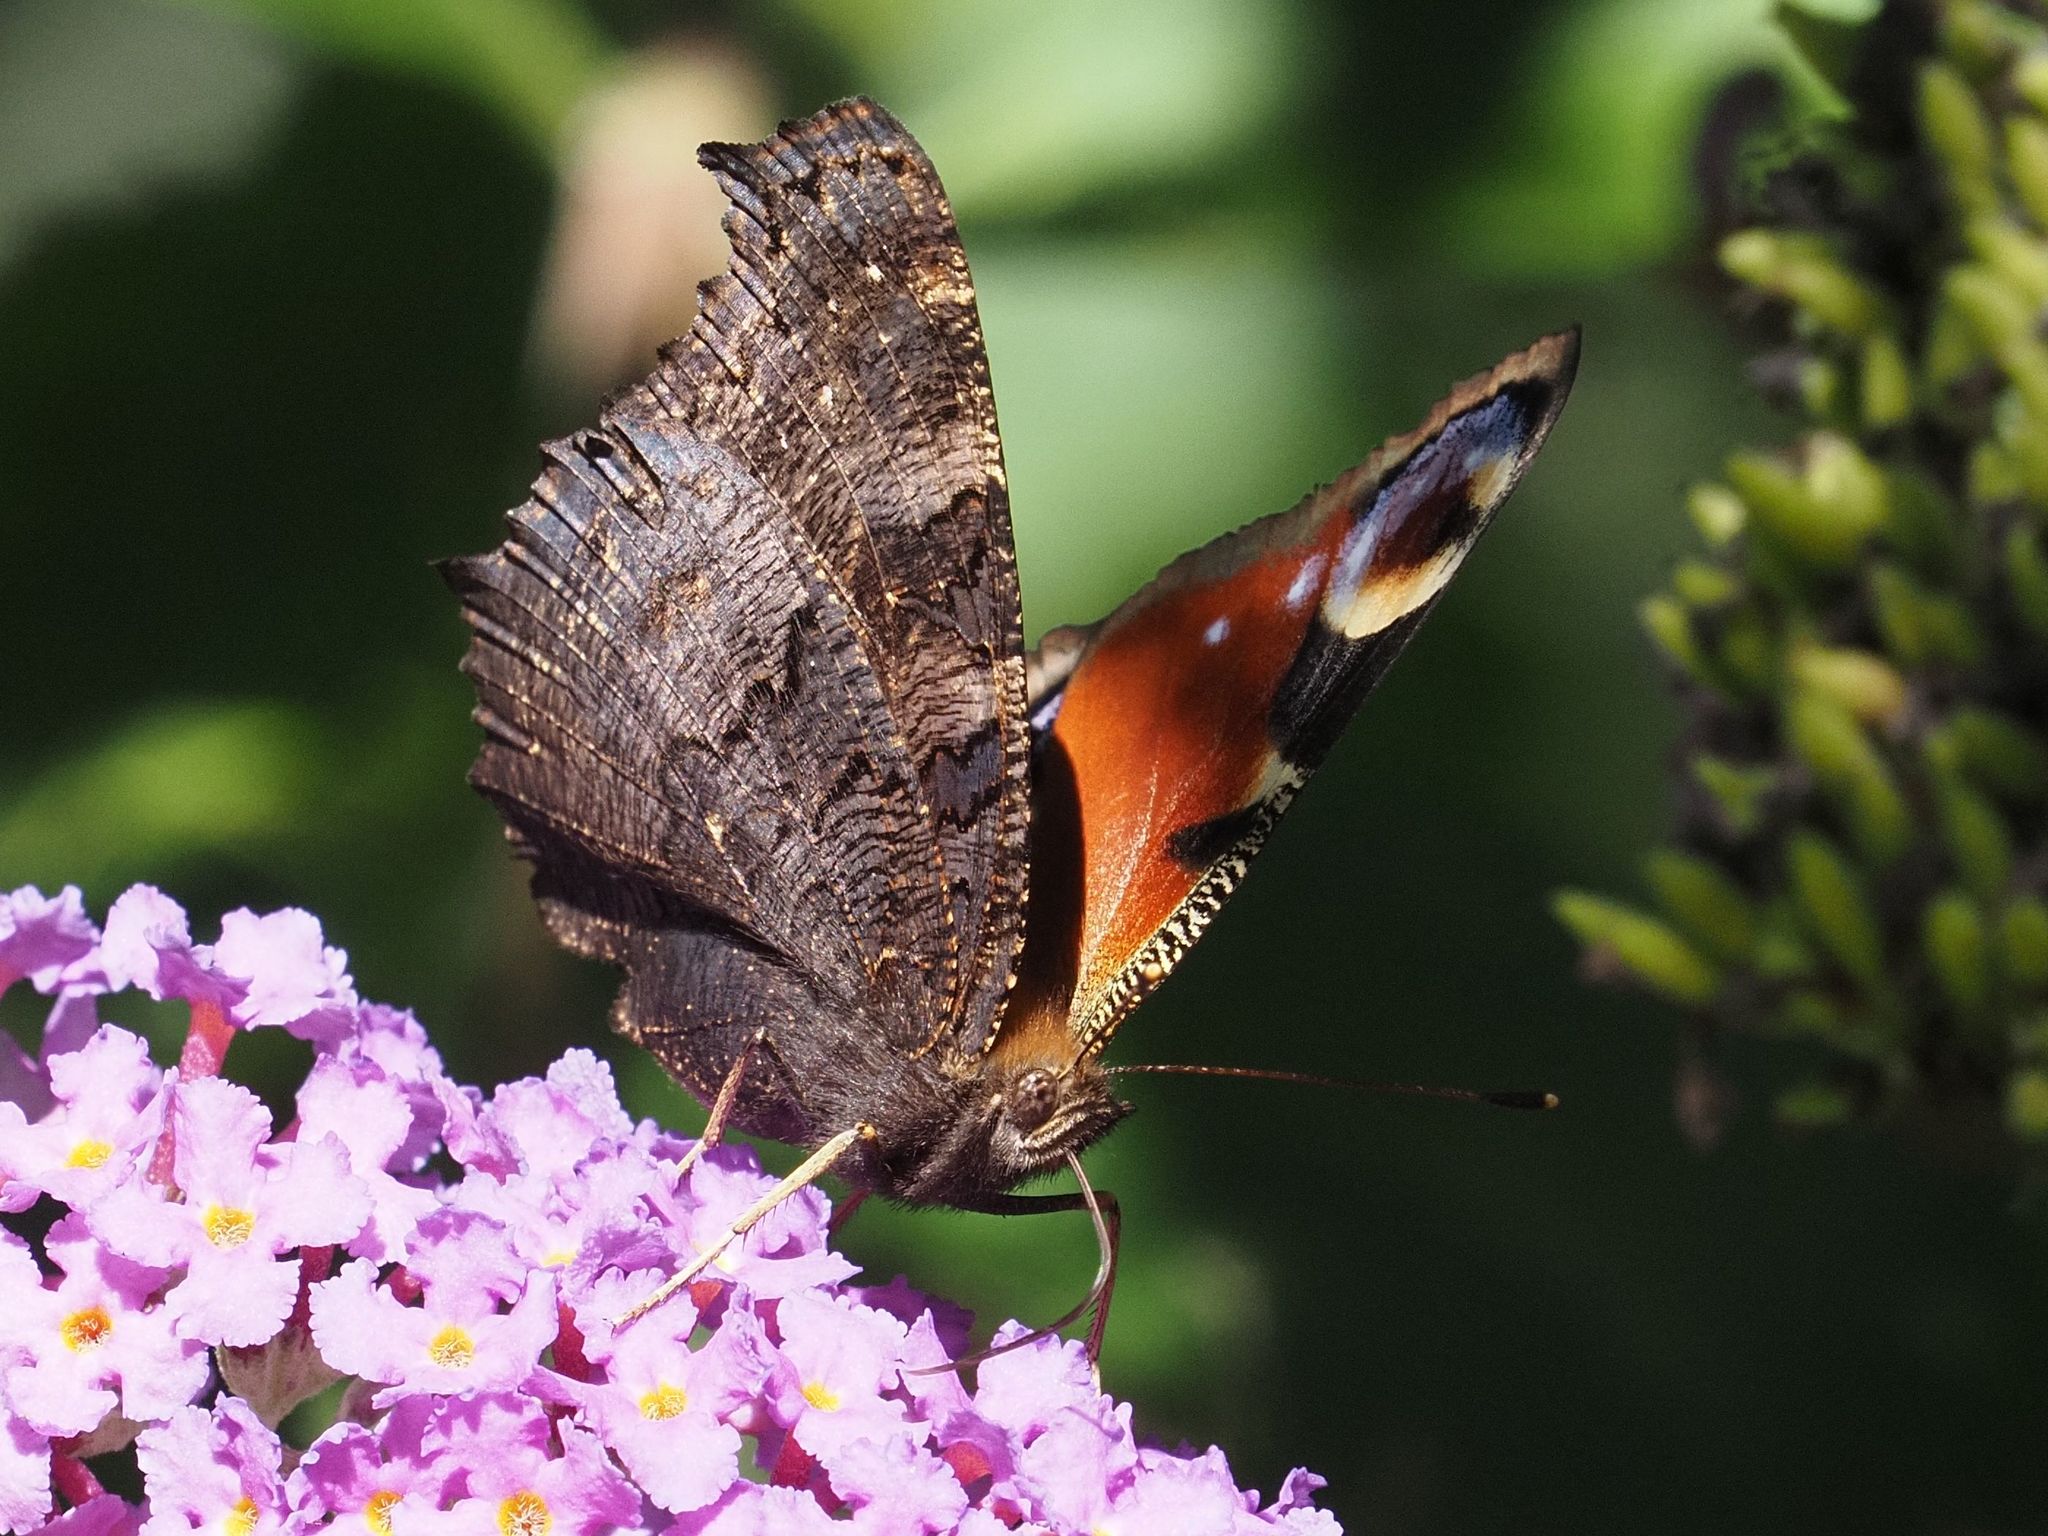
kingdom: Animalia
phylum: Arthropoda
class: Insecta
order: Lepidoptera
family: Nymphalidae
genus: Aglais
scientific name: Aglais io
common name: Peacock
